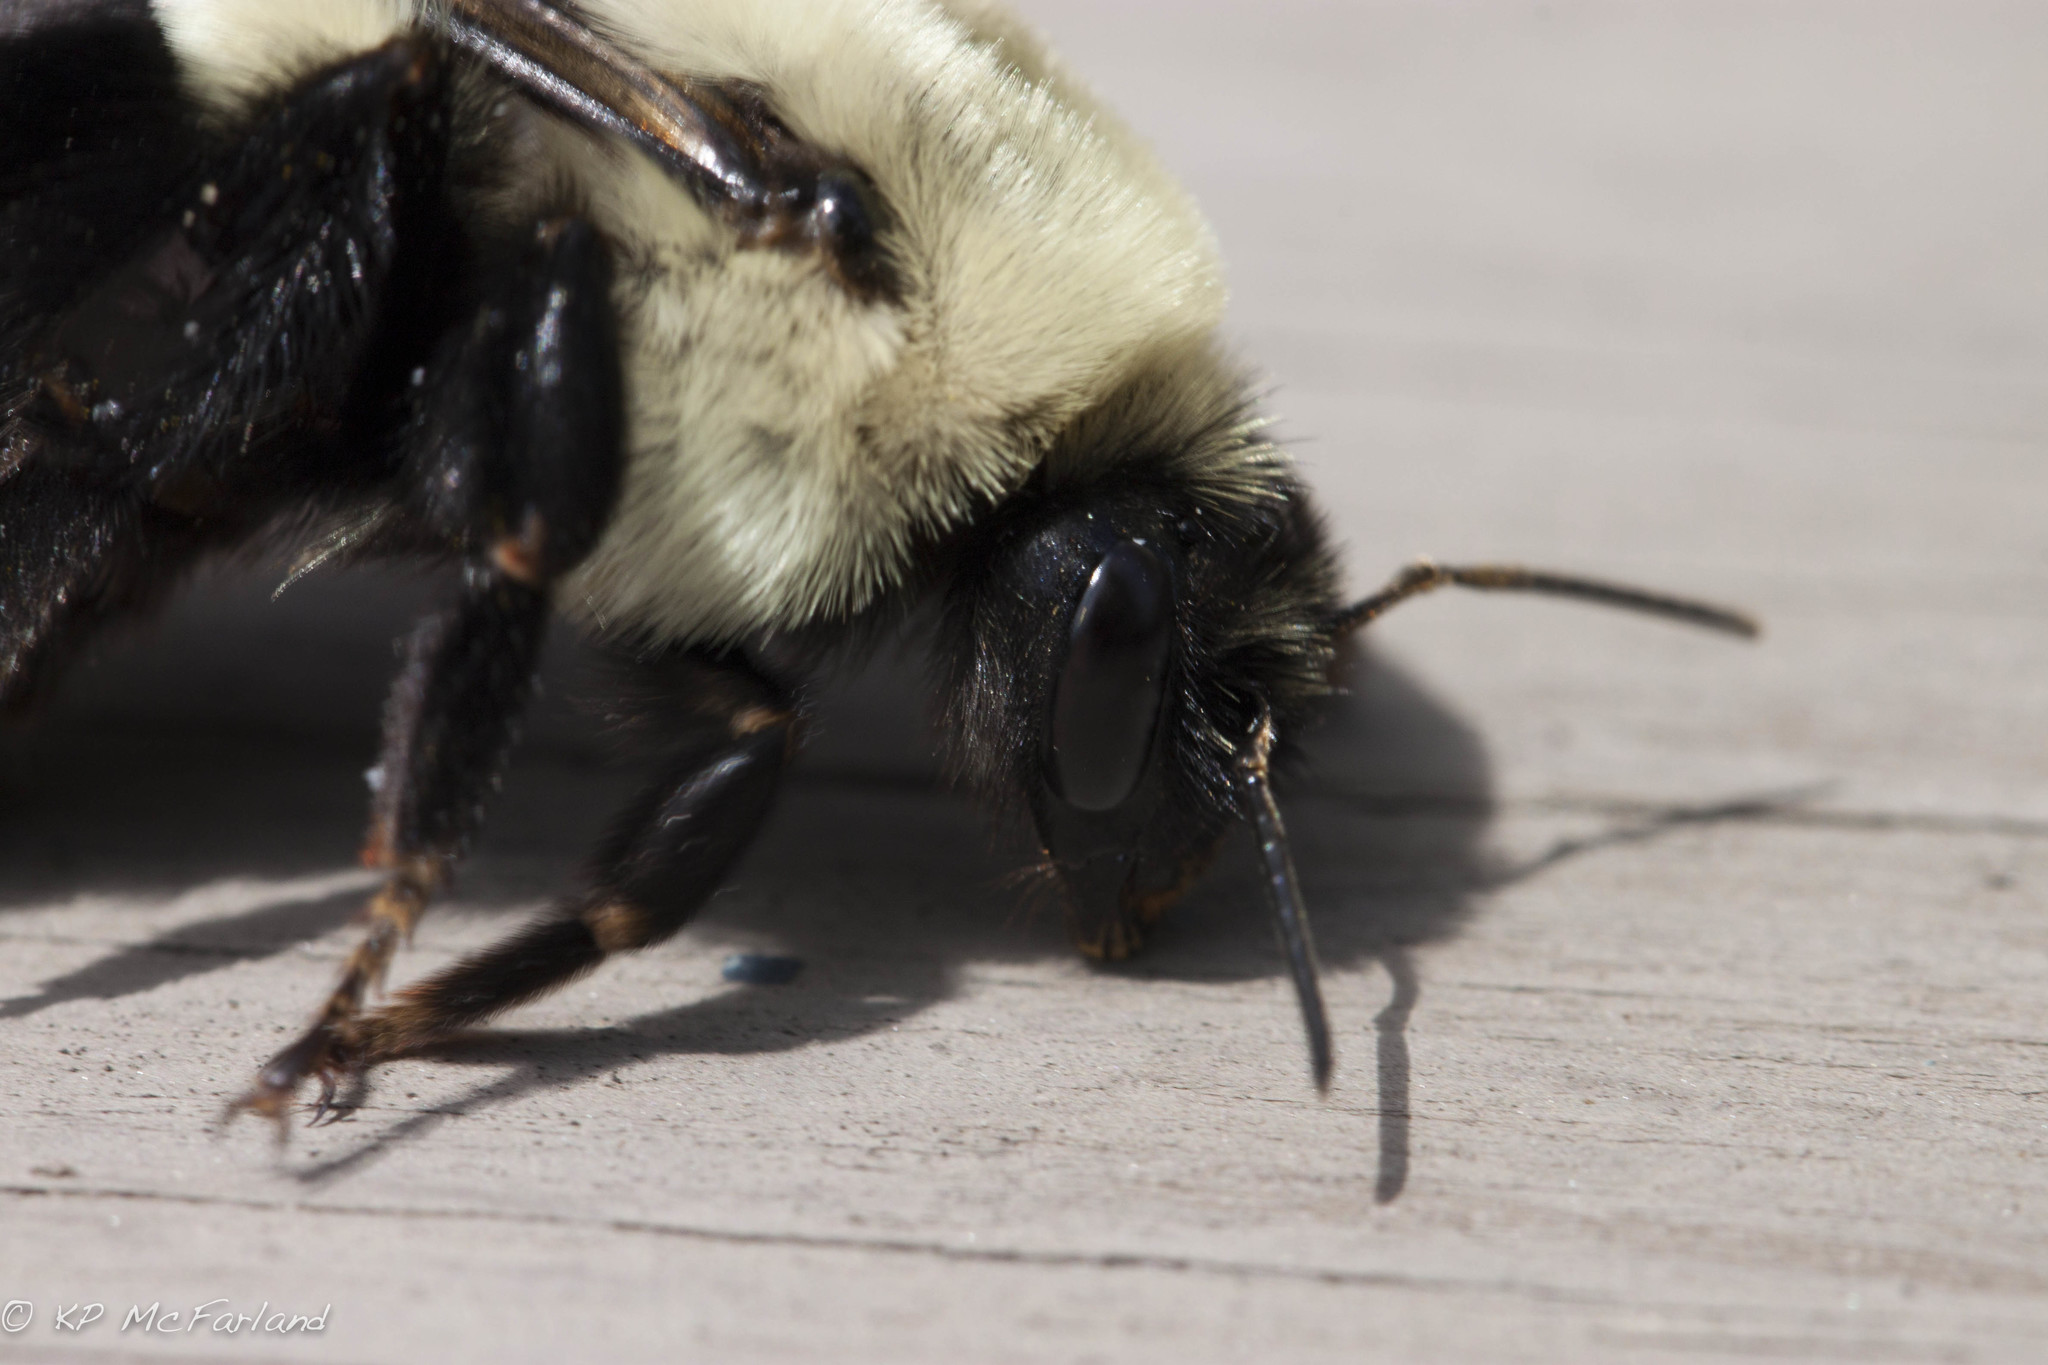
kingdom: Animalia
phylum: Arthropoda
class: Insecta
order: Hymenoptera
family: Apidae
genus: Bombus
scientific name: Bombus impatiens
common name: Common eastern bumble bee
